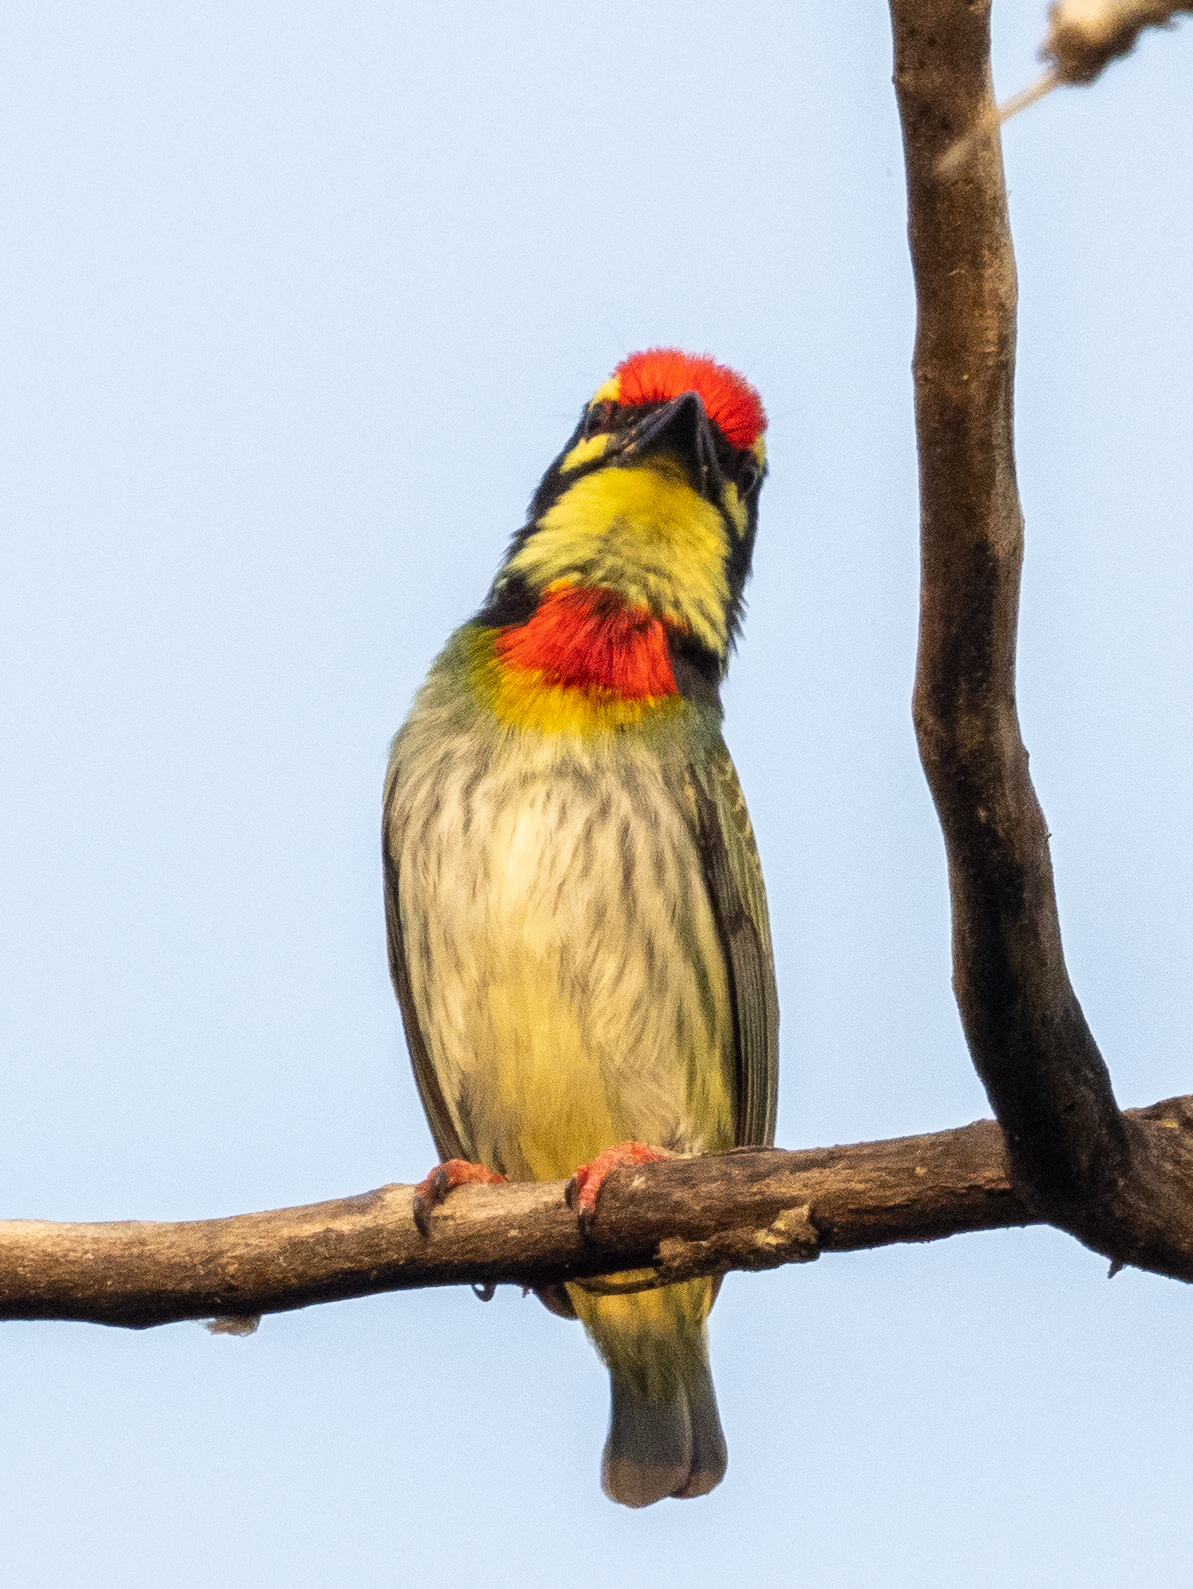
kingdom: Animalia
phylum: Chordata
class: Aves
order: Piciformes
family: Megalaimidae
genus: Psilopogon
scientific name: Psilopogon haemacephalus
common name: Coppersmith barbet
